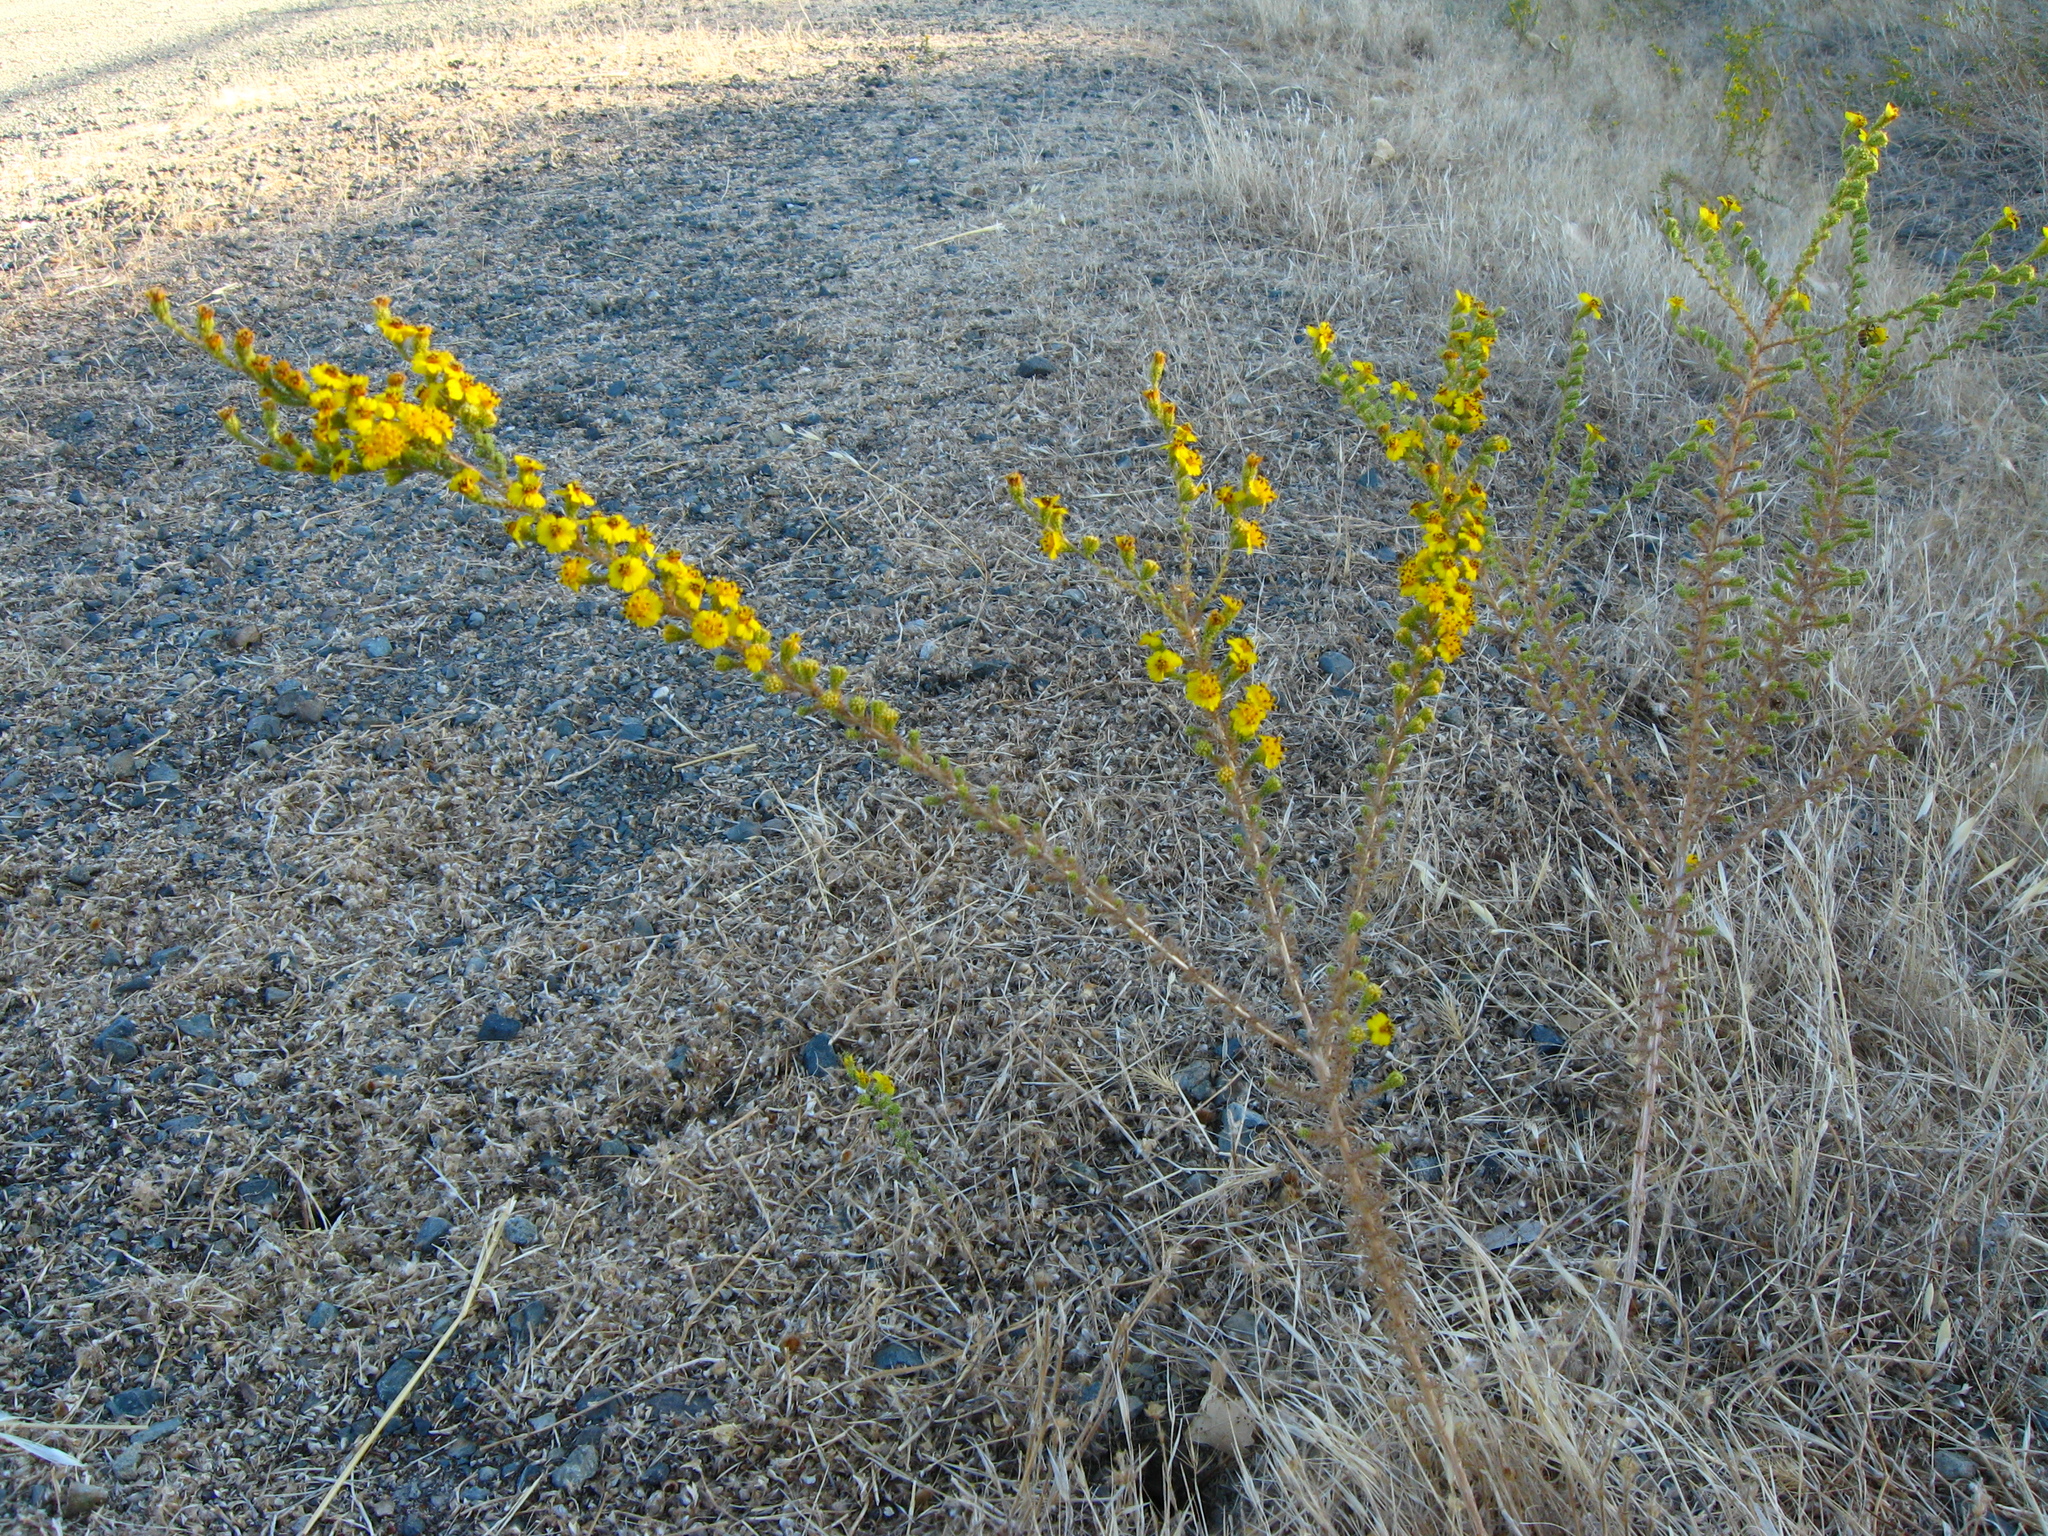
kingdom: Plantae
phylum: Tracheophyta
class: Magnoliopsida
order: Asterales
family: Asteraceae
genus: Holocarpha
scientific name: Holocarpha virgata
